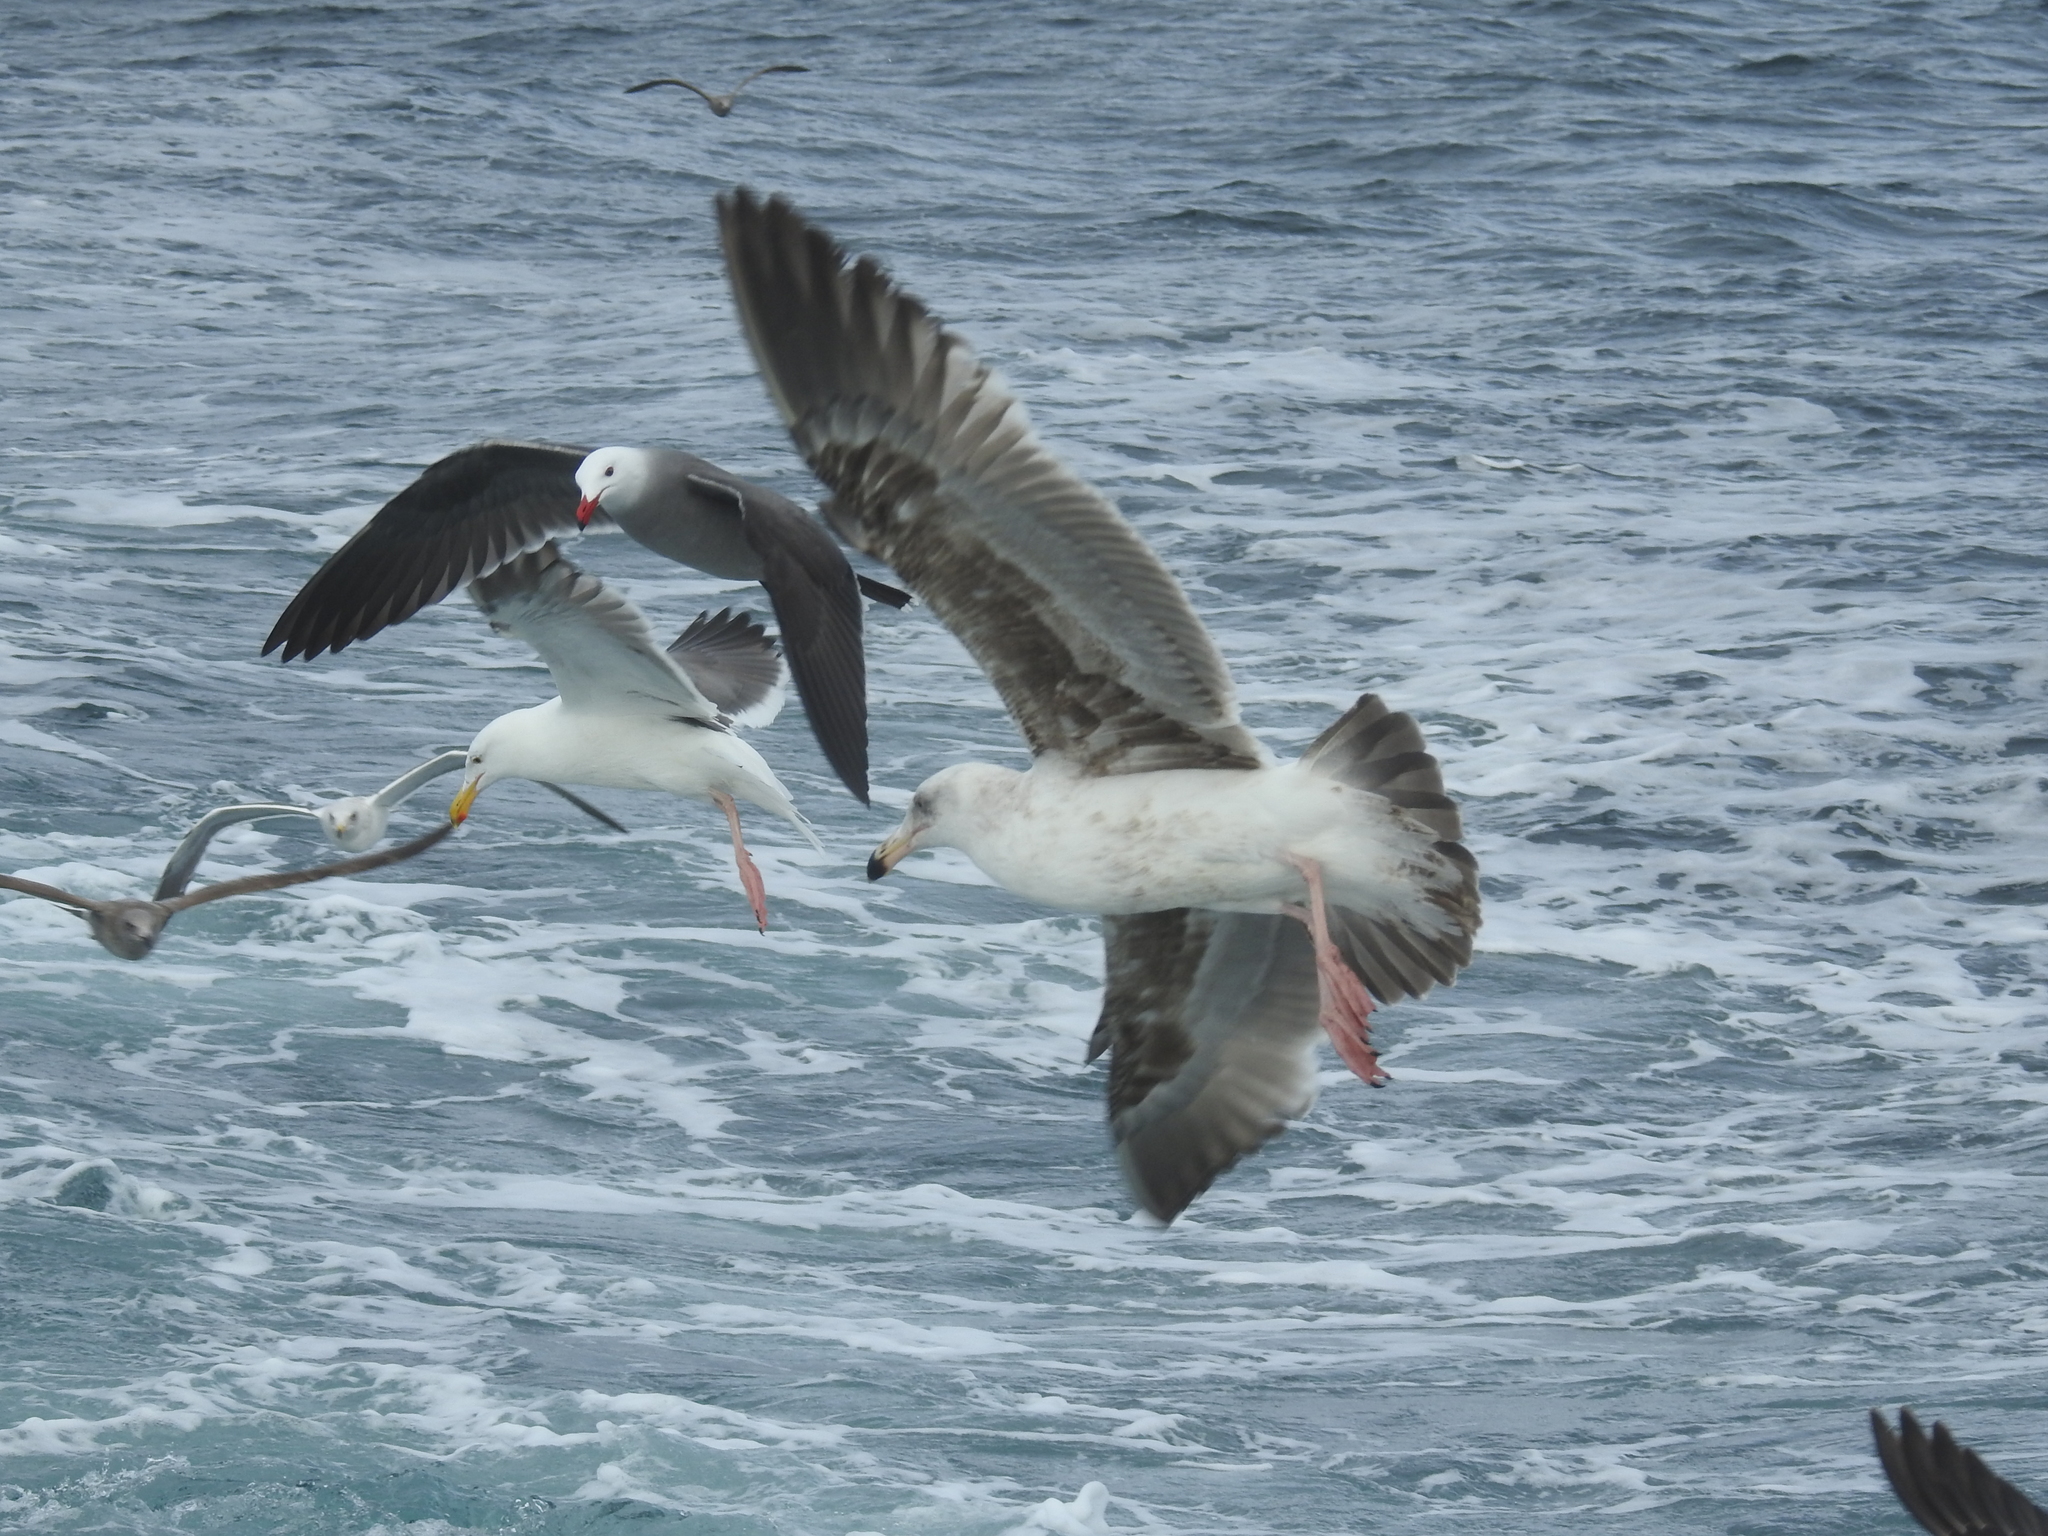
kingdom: Animalia
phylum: Chordata
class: Aves
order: Charadriiformes
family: Laridae
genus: Larus
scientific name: Larus heermanni
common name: Heermann's gull
